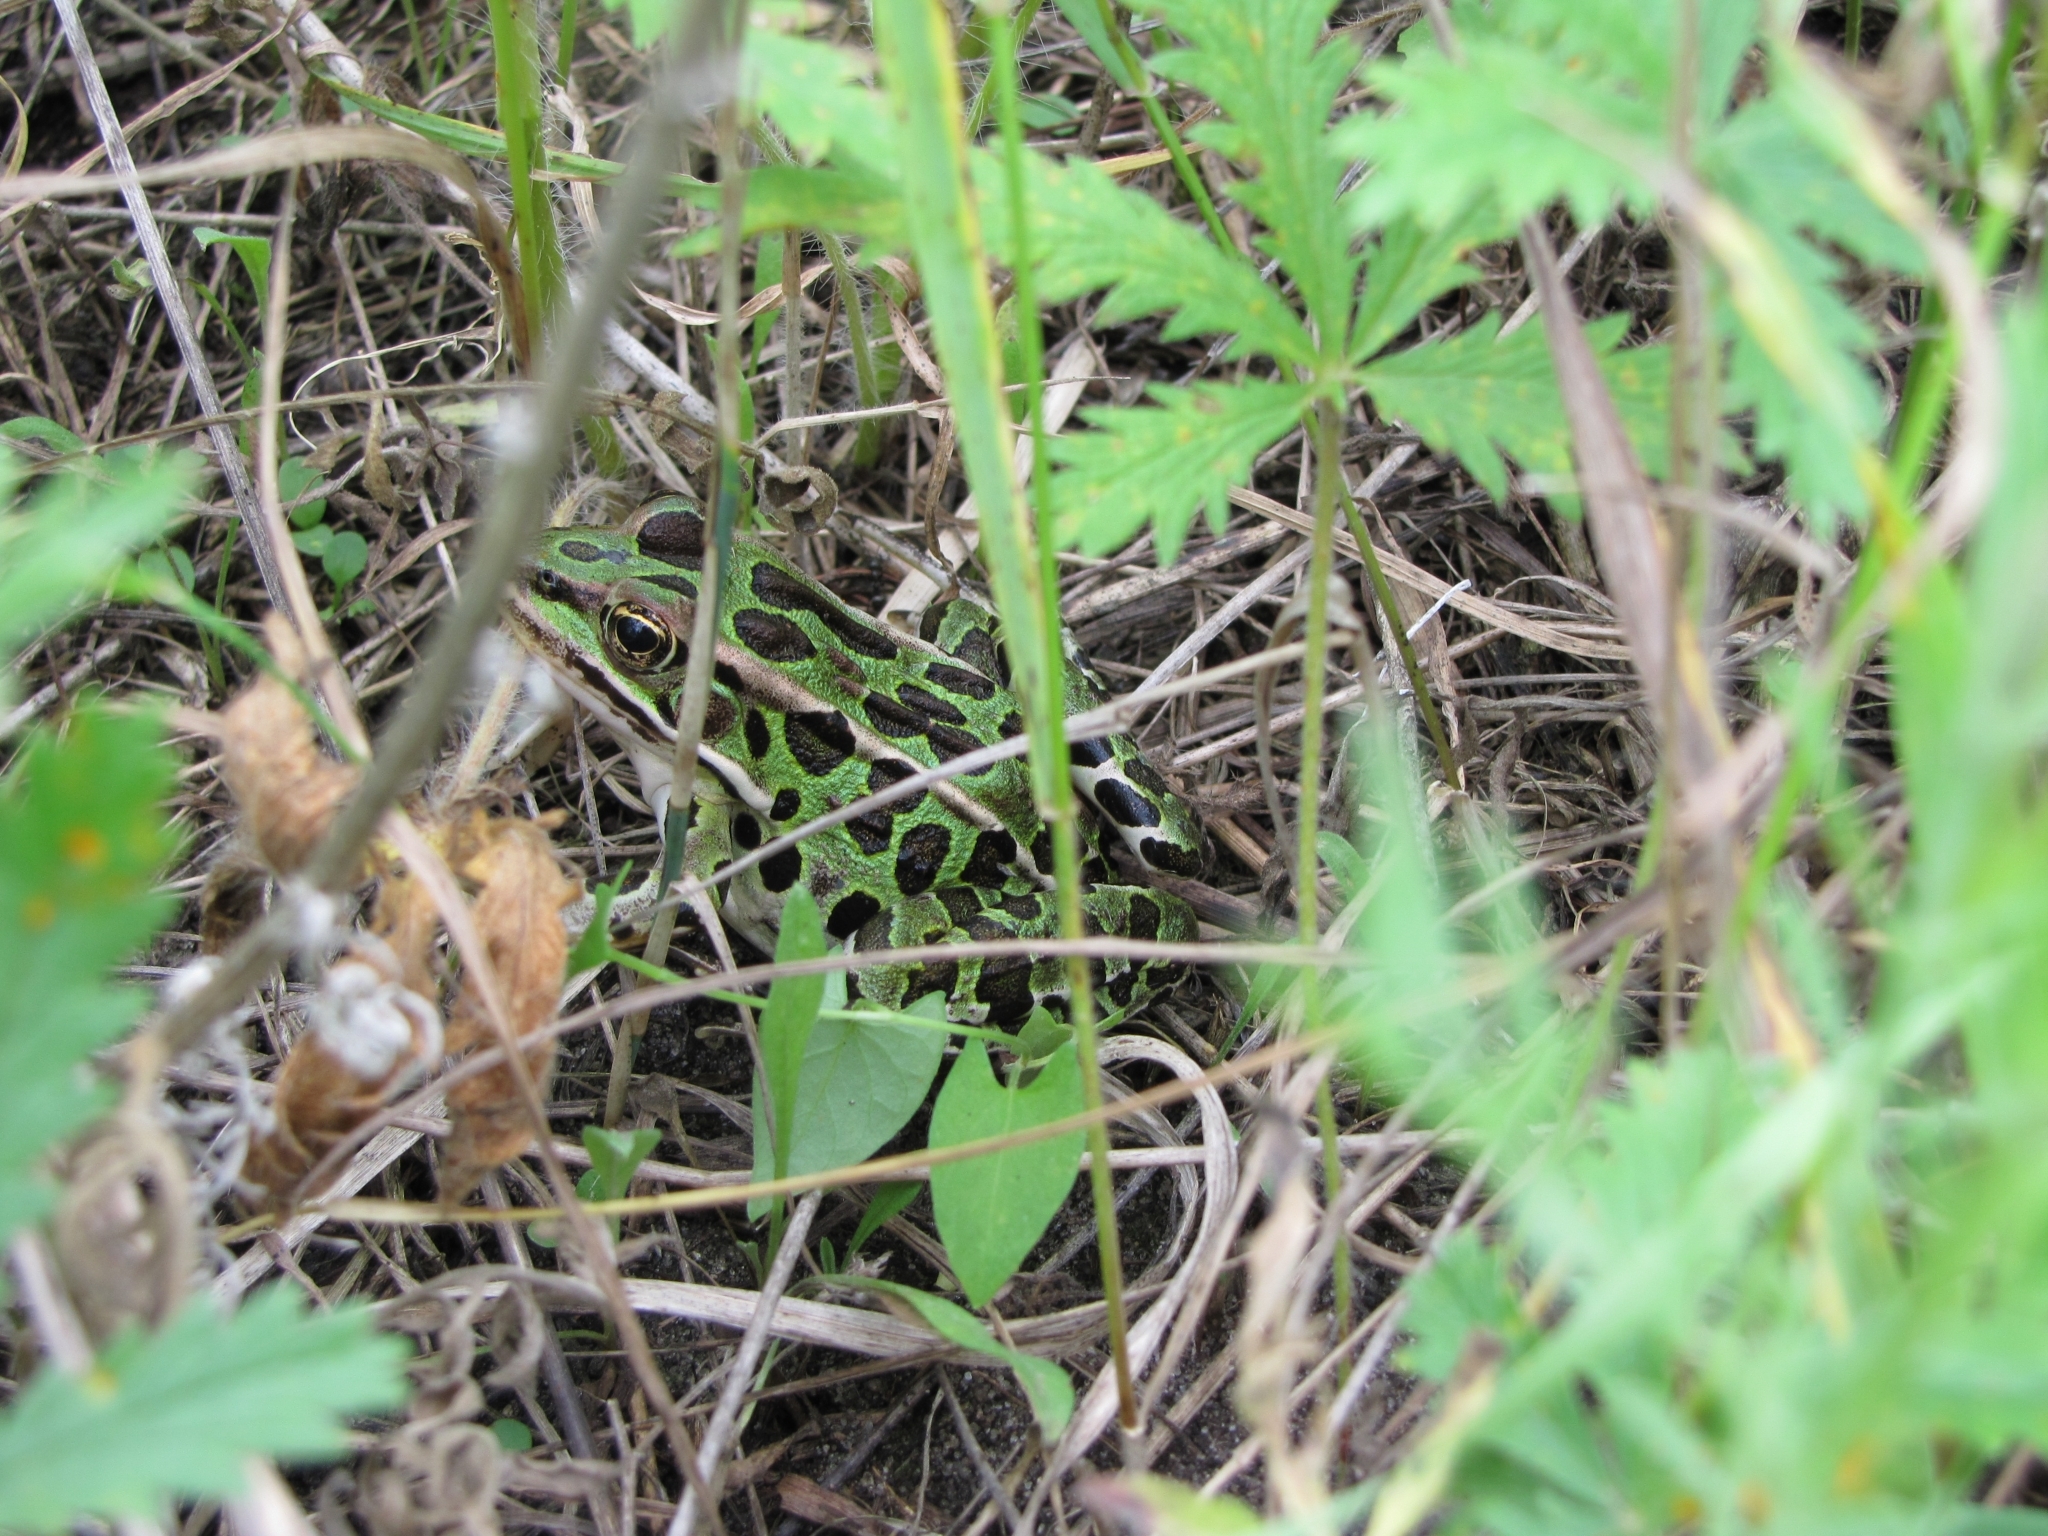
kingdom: Animalia
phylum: Chordata
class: Amphibia
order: Anura
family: Ranidae
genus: Lithobates
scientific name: Lithobates pipiens
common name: Northern leopard frog
